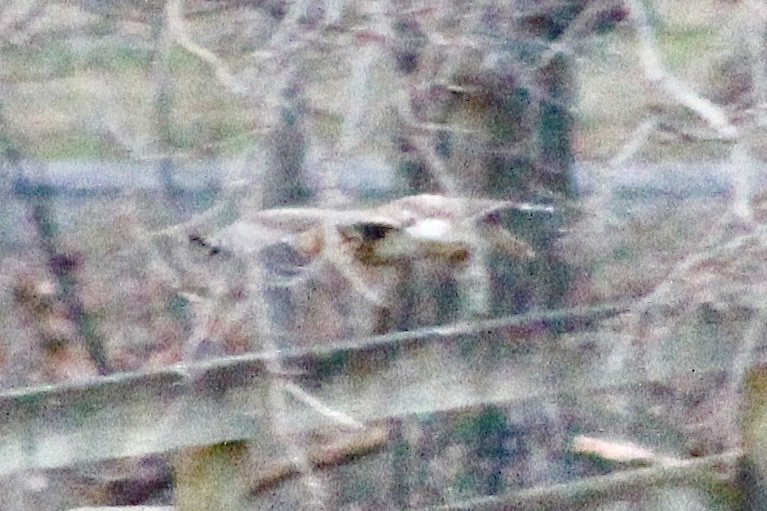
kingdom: Animalia
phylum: Chordata
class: Aves
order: Accipitriformes
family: Accipitridae
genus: Buteo
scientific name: Buteo jamaicensis
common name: Red-tailed hawk
